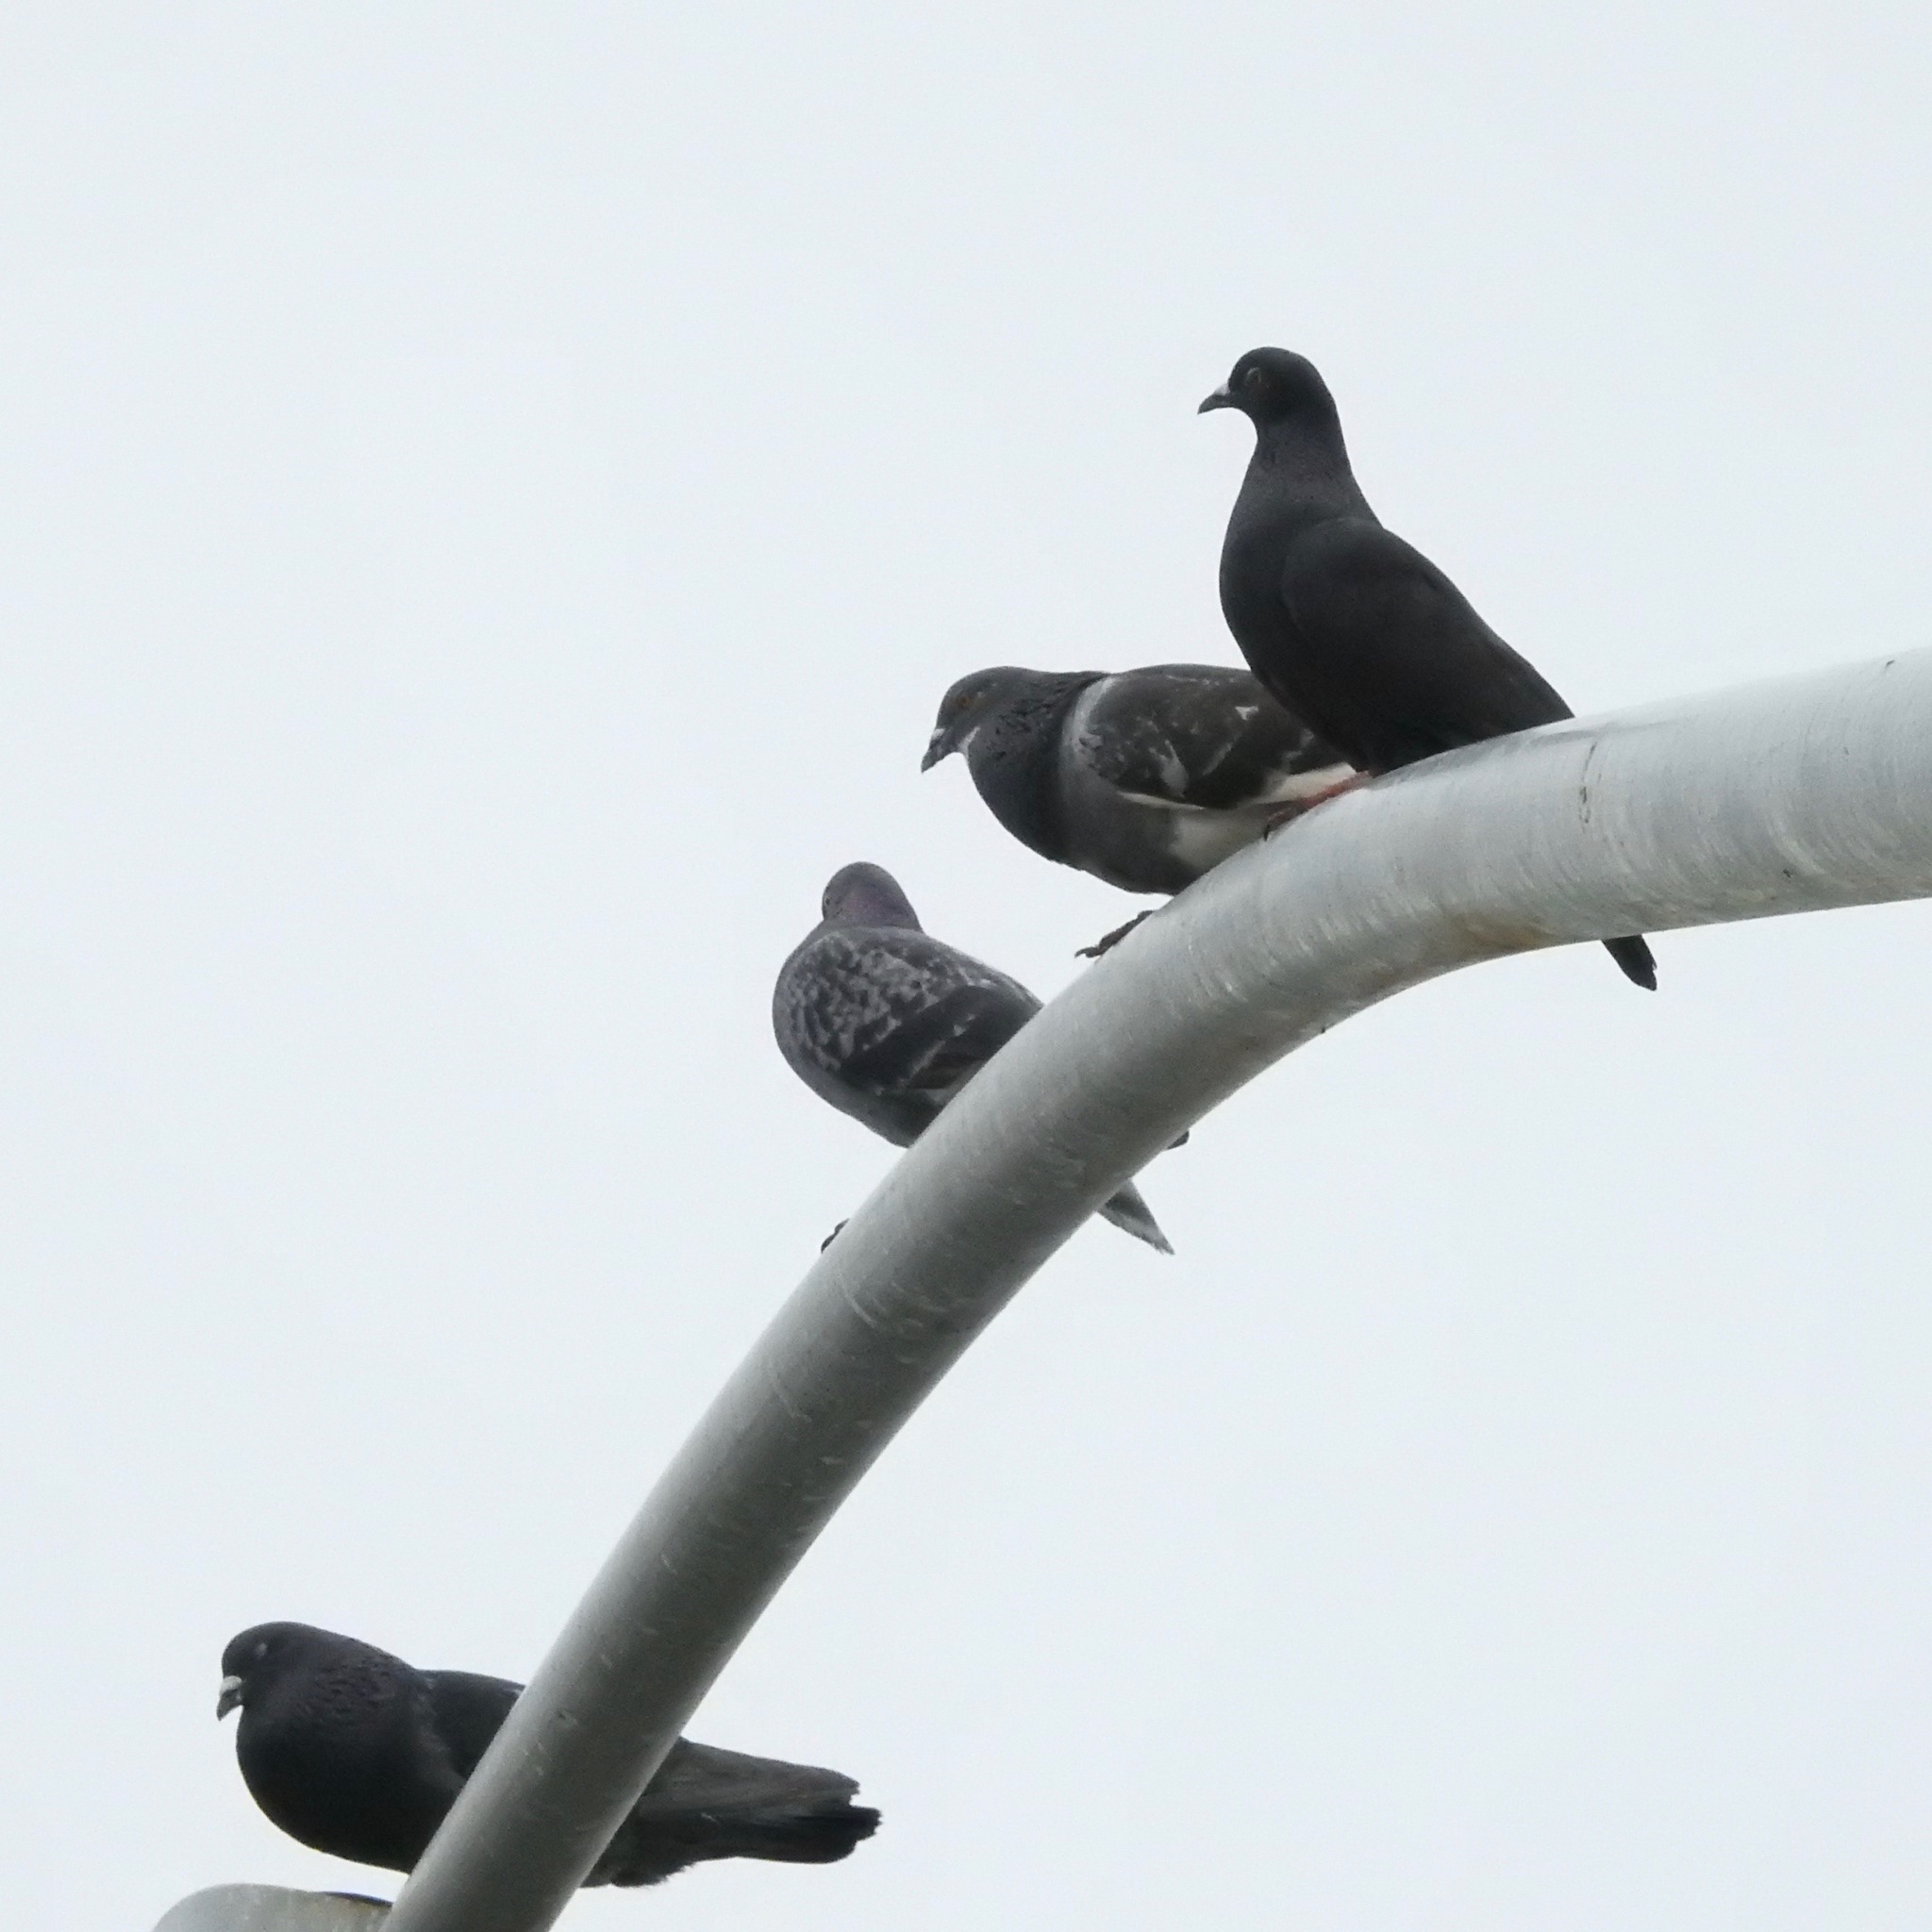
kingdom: Animalia
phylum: Chordata
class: Aves
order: Columbiformes
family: Columbidae
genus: Columba
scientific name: Columba livia
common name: Rock pigeon
